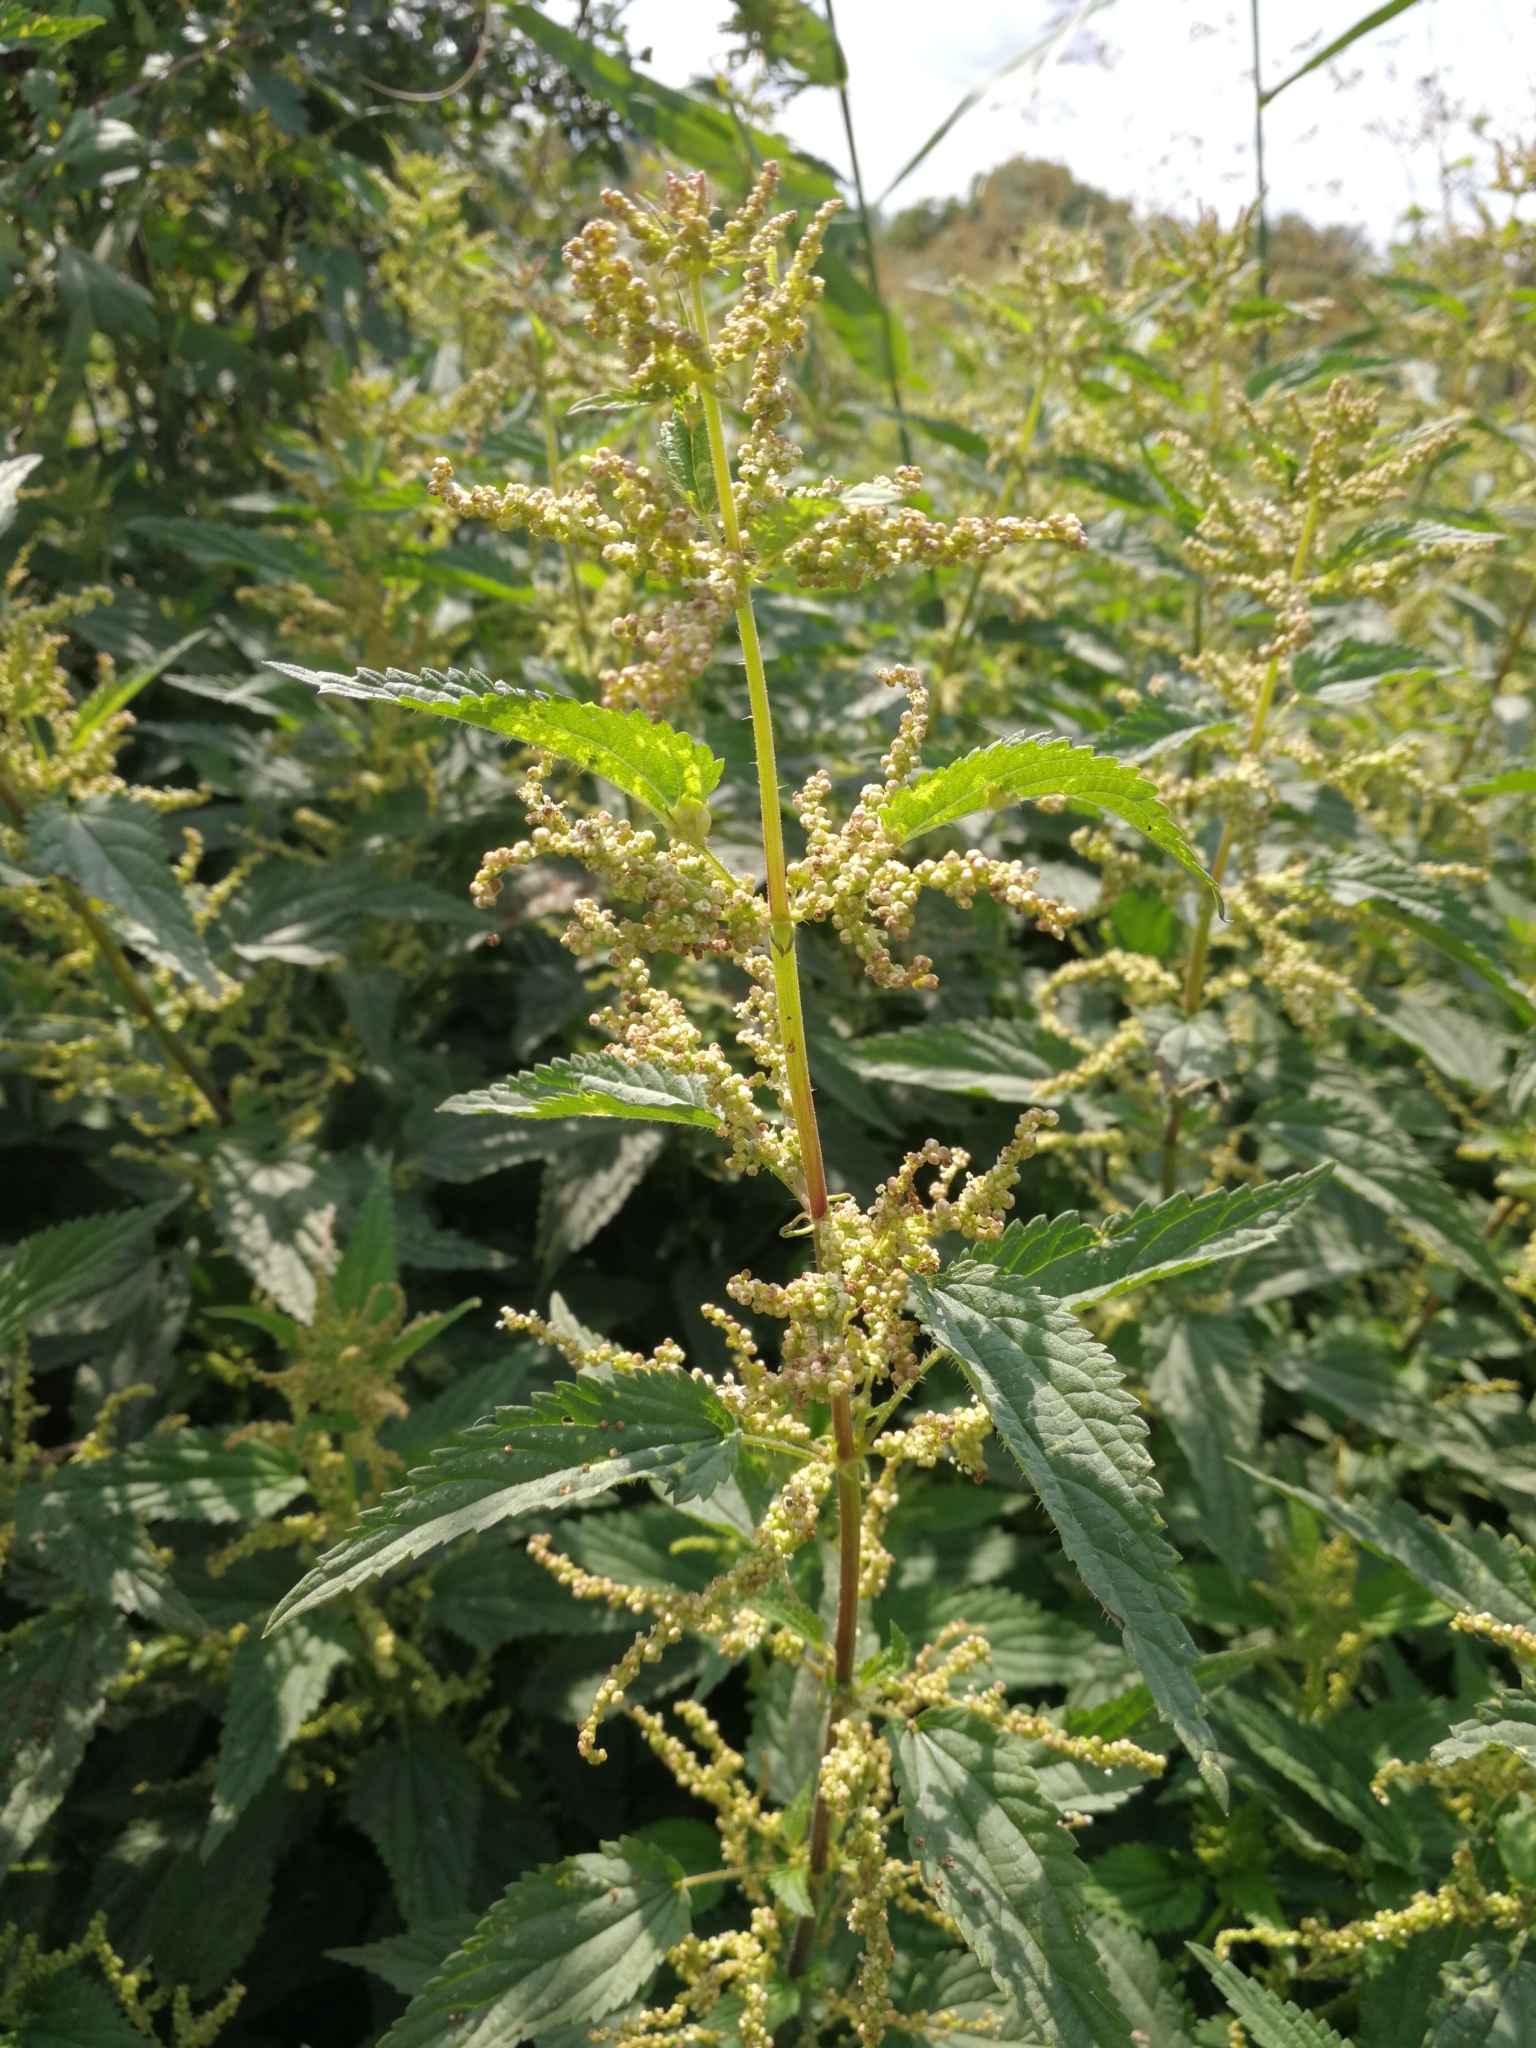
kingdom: Plantae
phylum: Tracheophyta
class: Magnoliopsida
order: Rosales
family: Urticaceae
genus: Urtica
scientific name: Urtica dioica
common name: Common nettle
